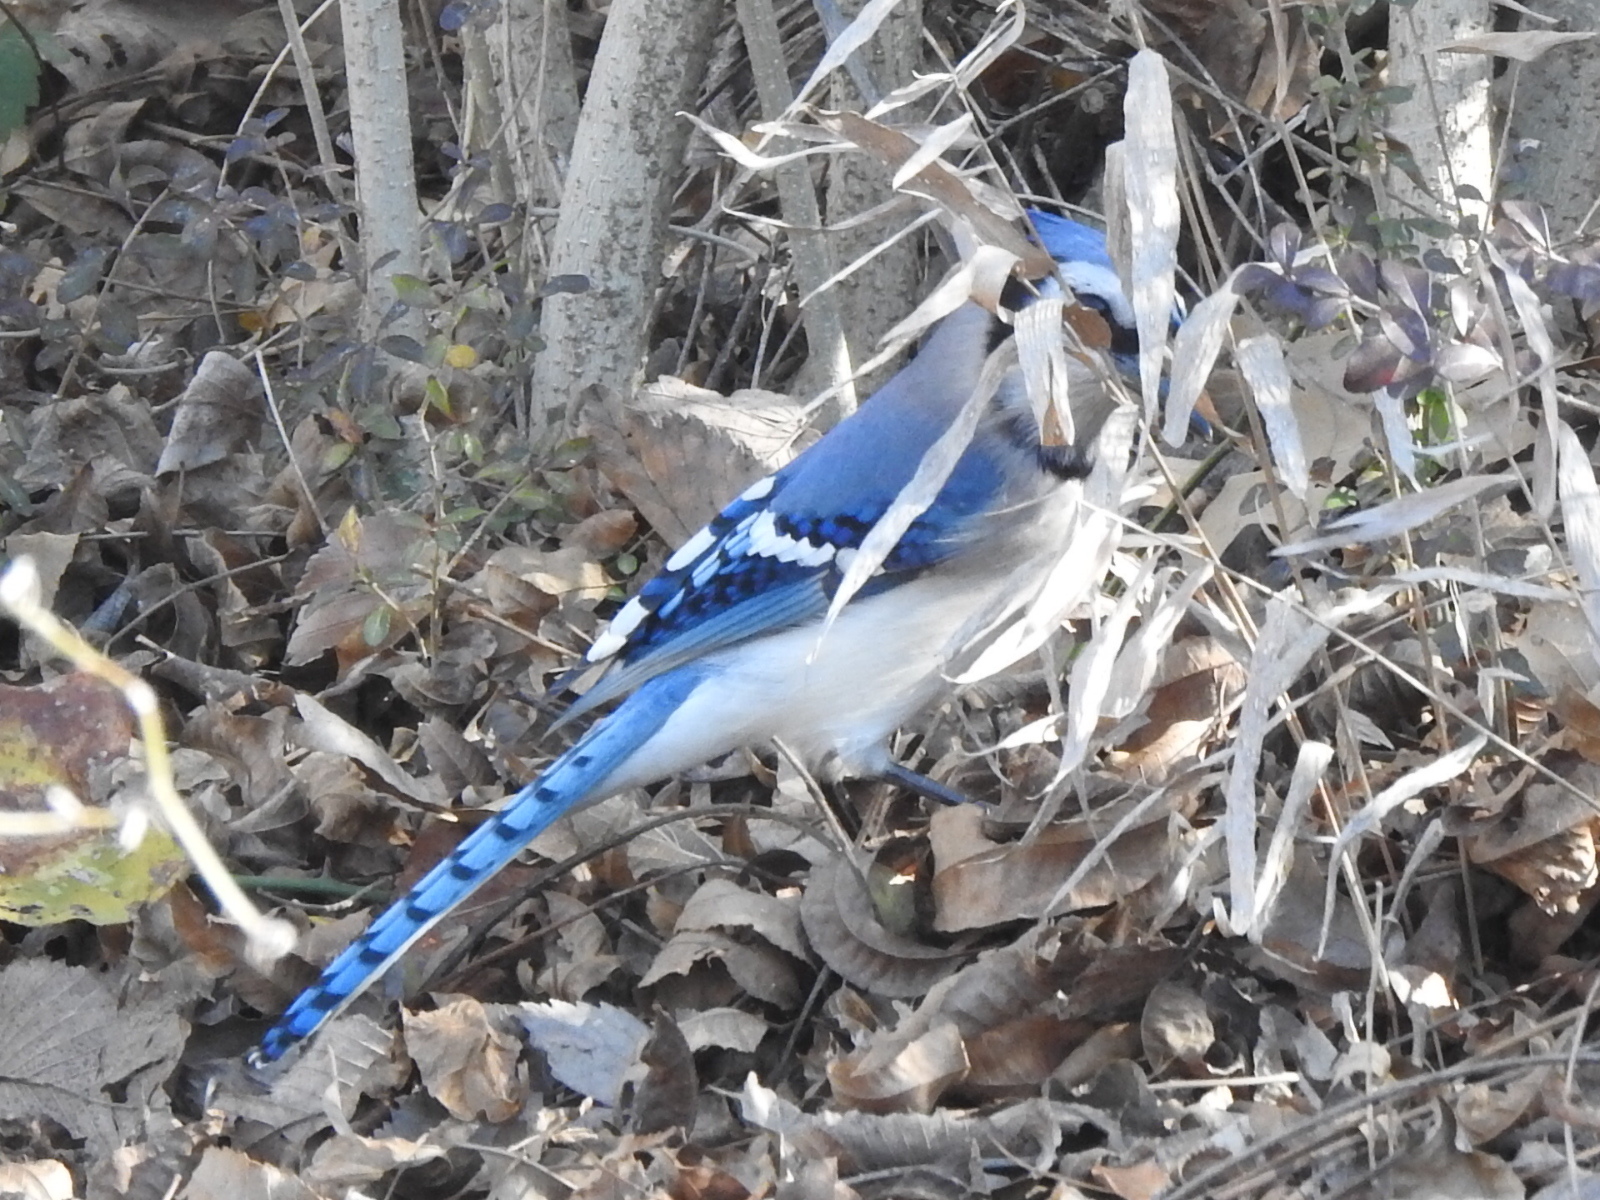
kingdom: Animalia
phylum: Chordata
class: Aves
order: Passeriformes
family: Corvidae
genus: Cyanocitta
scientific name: Cyanocitta cristata
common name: Blue jay
